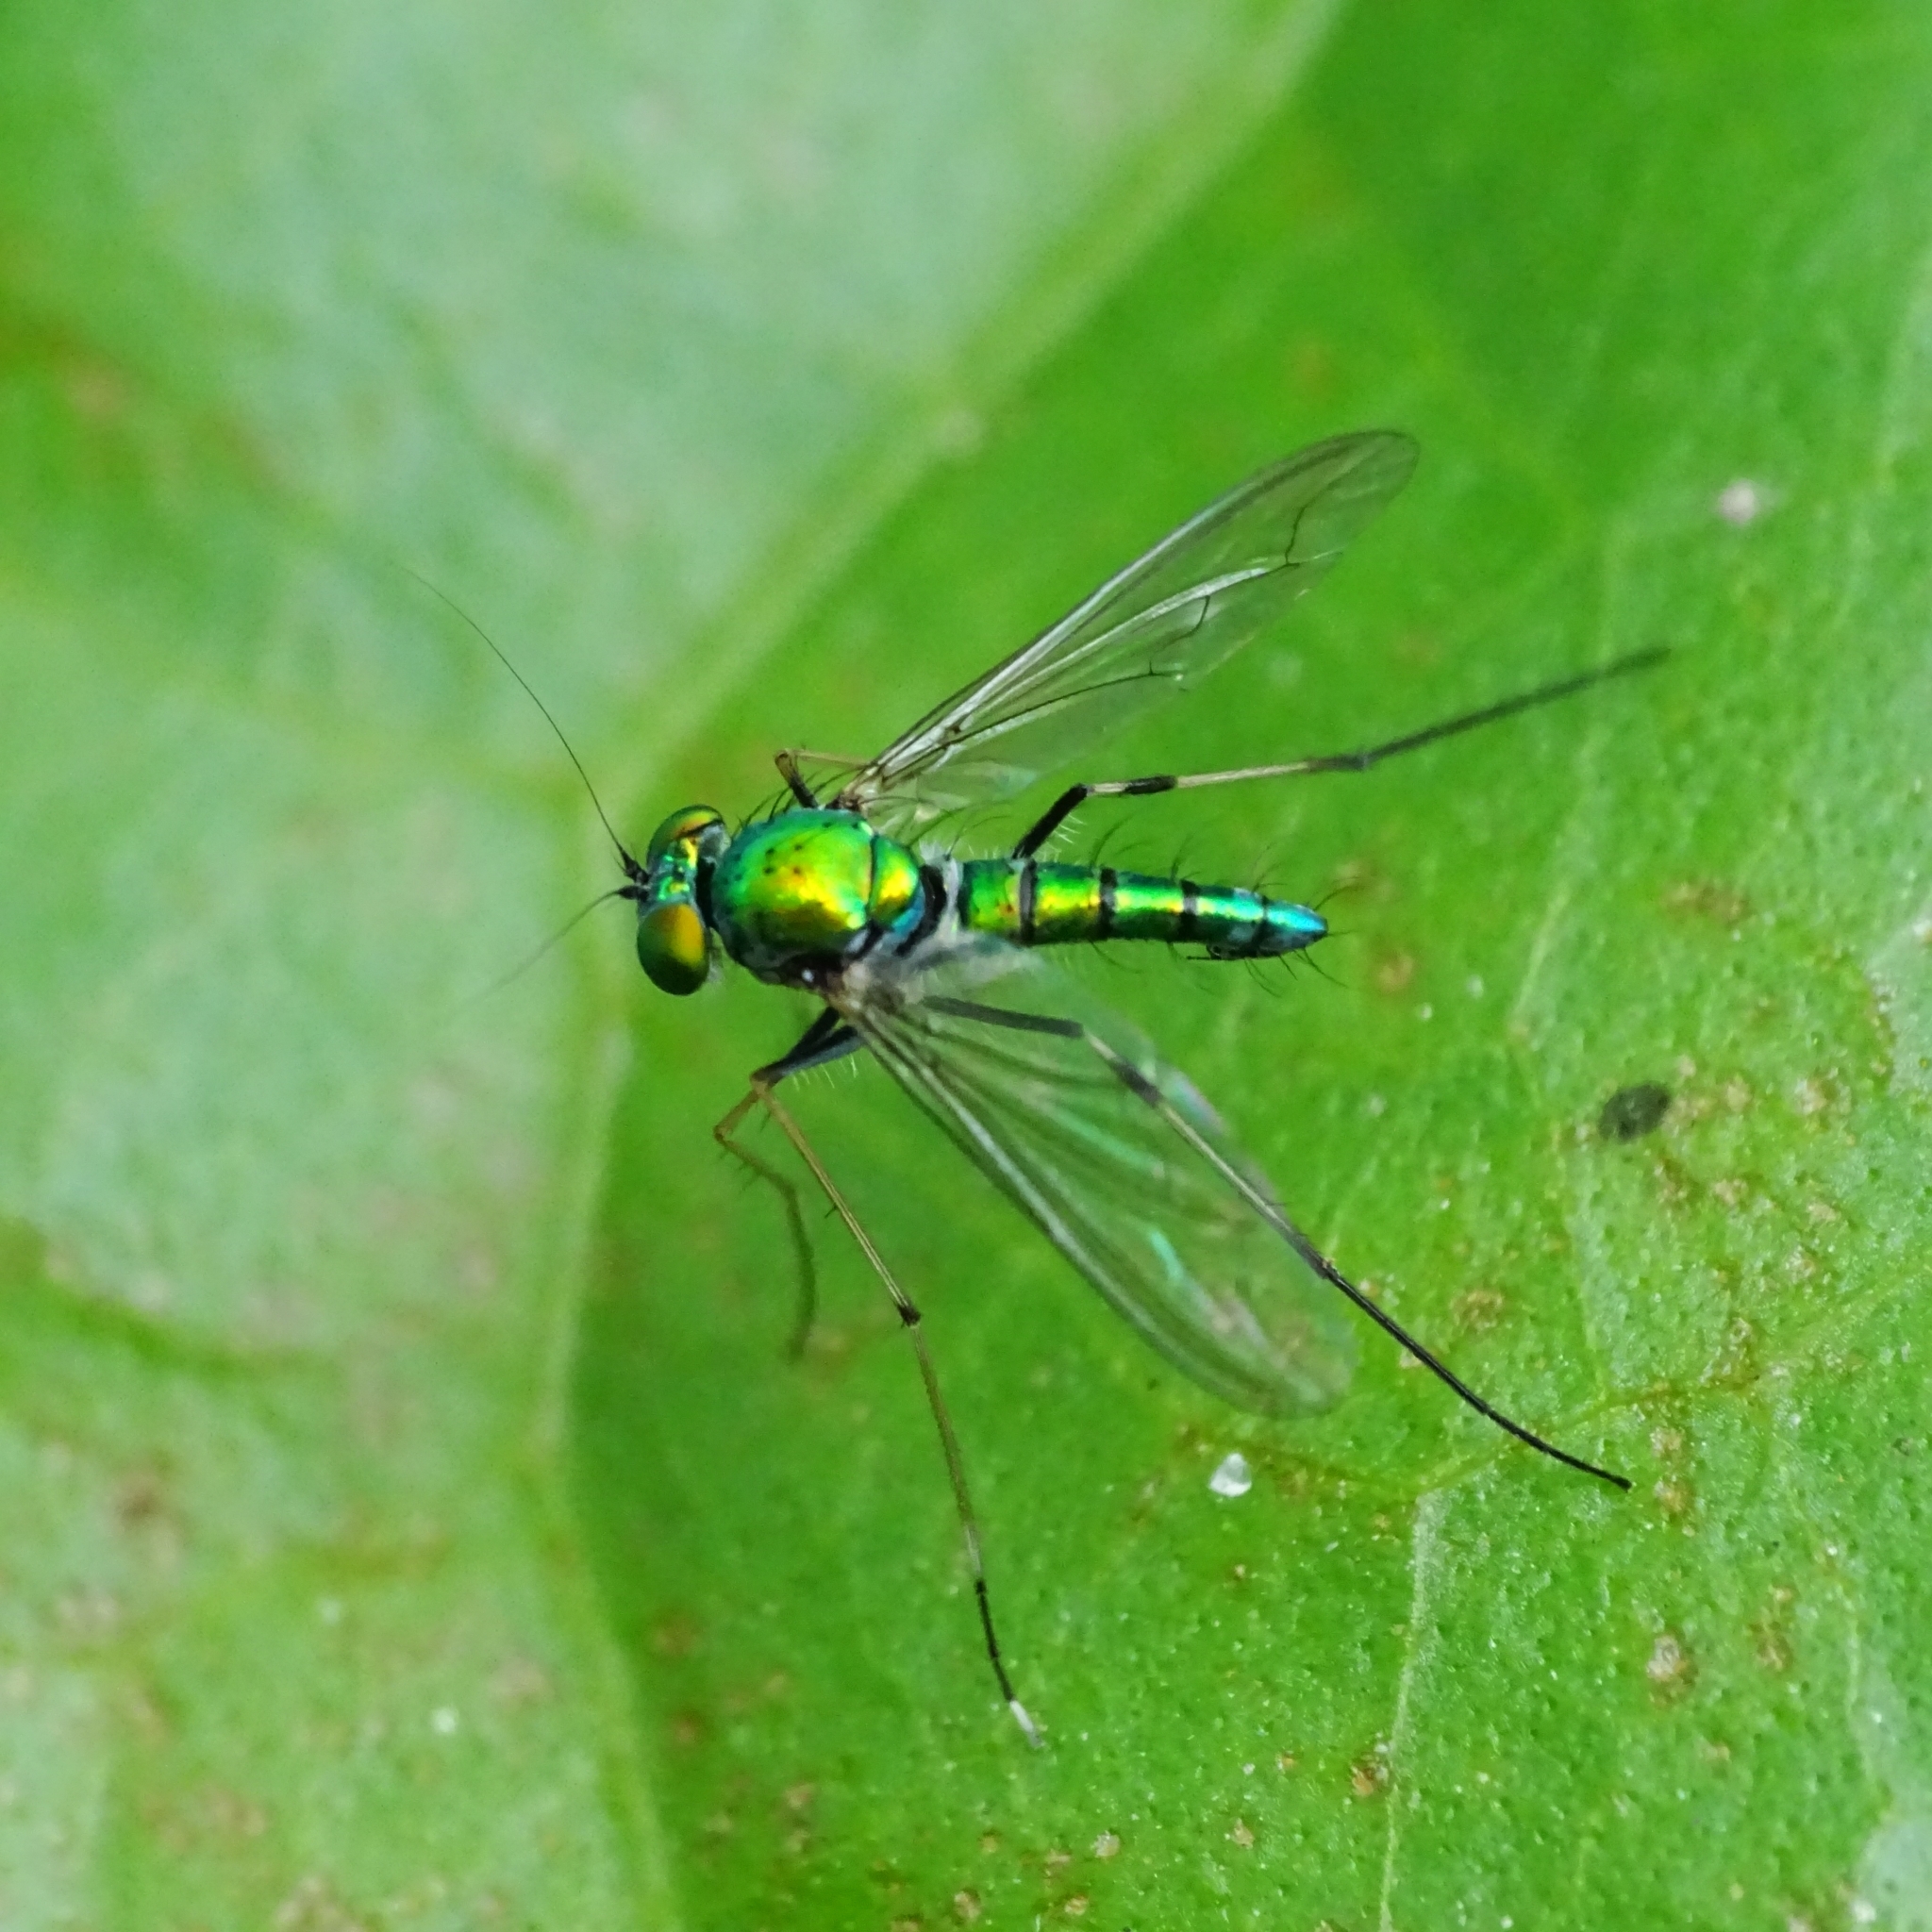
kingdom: Animalia
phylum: Arthropoda
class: Insecta
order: Diptera
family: Dolichopodidae
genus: Chrysosoma
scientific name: Chrysosoma leucopogon
